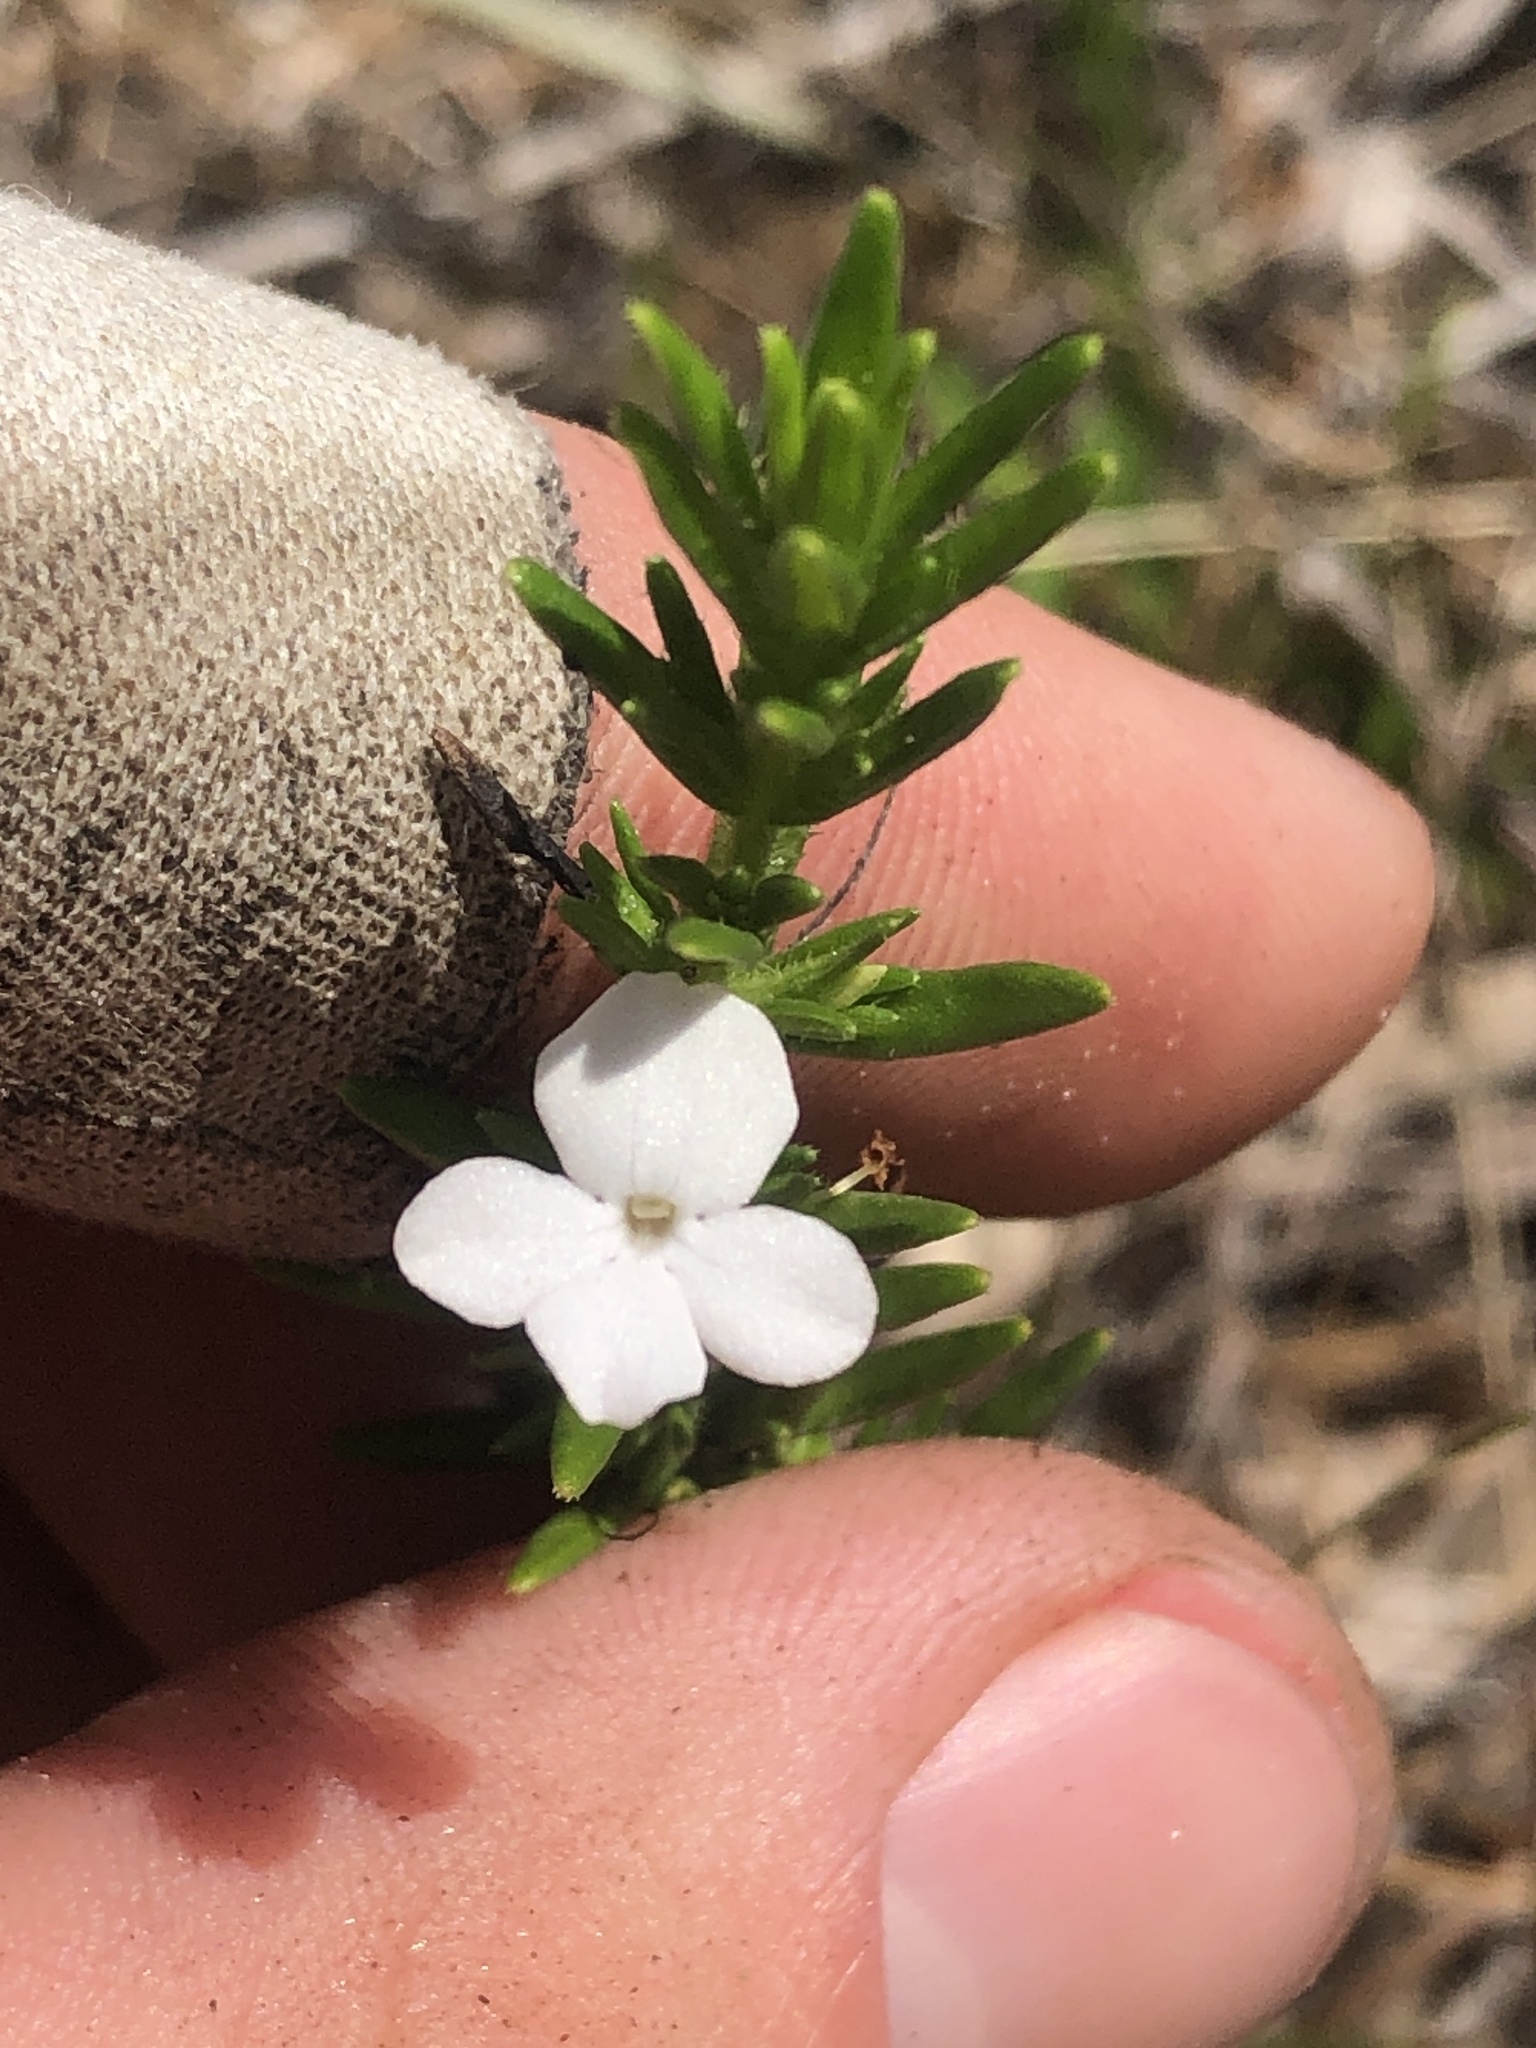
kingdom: Plantae
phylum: Tracheophyta
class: Magnoliopsida
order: Lamiales
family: Plantaginaceae
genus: Gratiola
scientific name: Gratiola hispida
